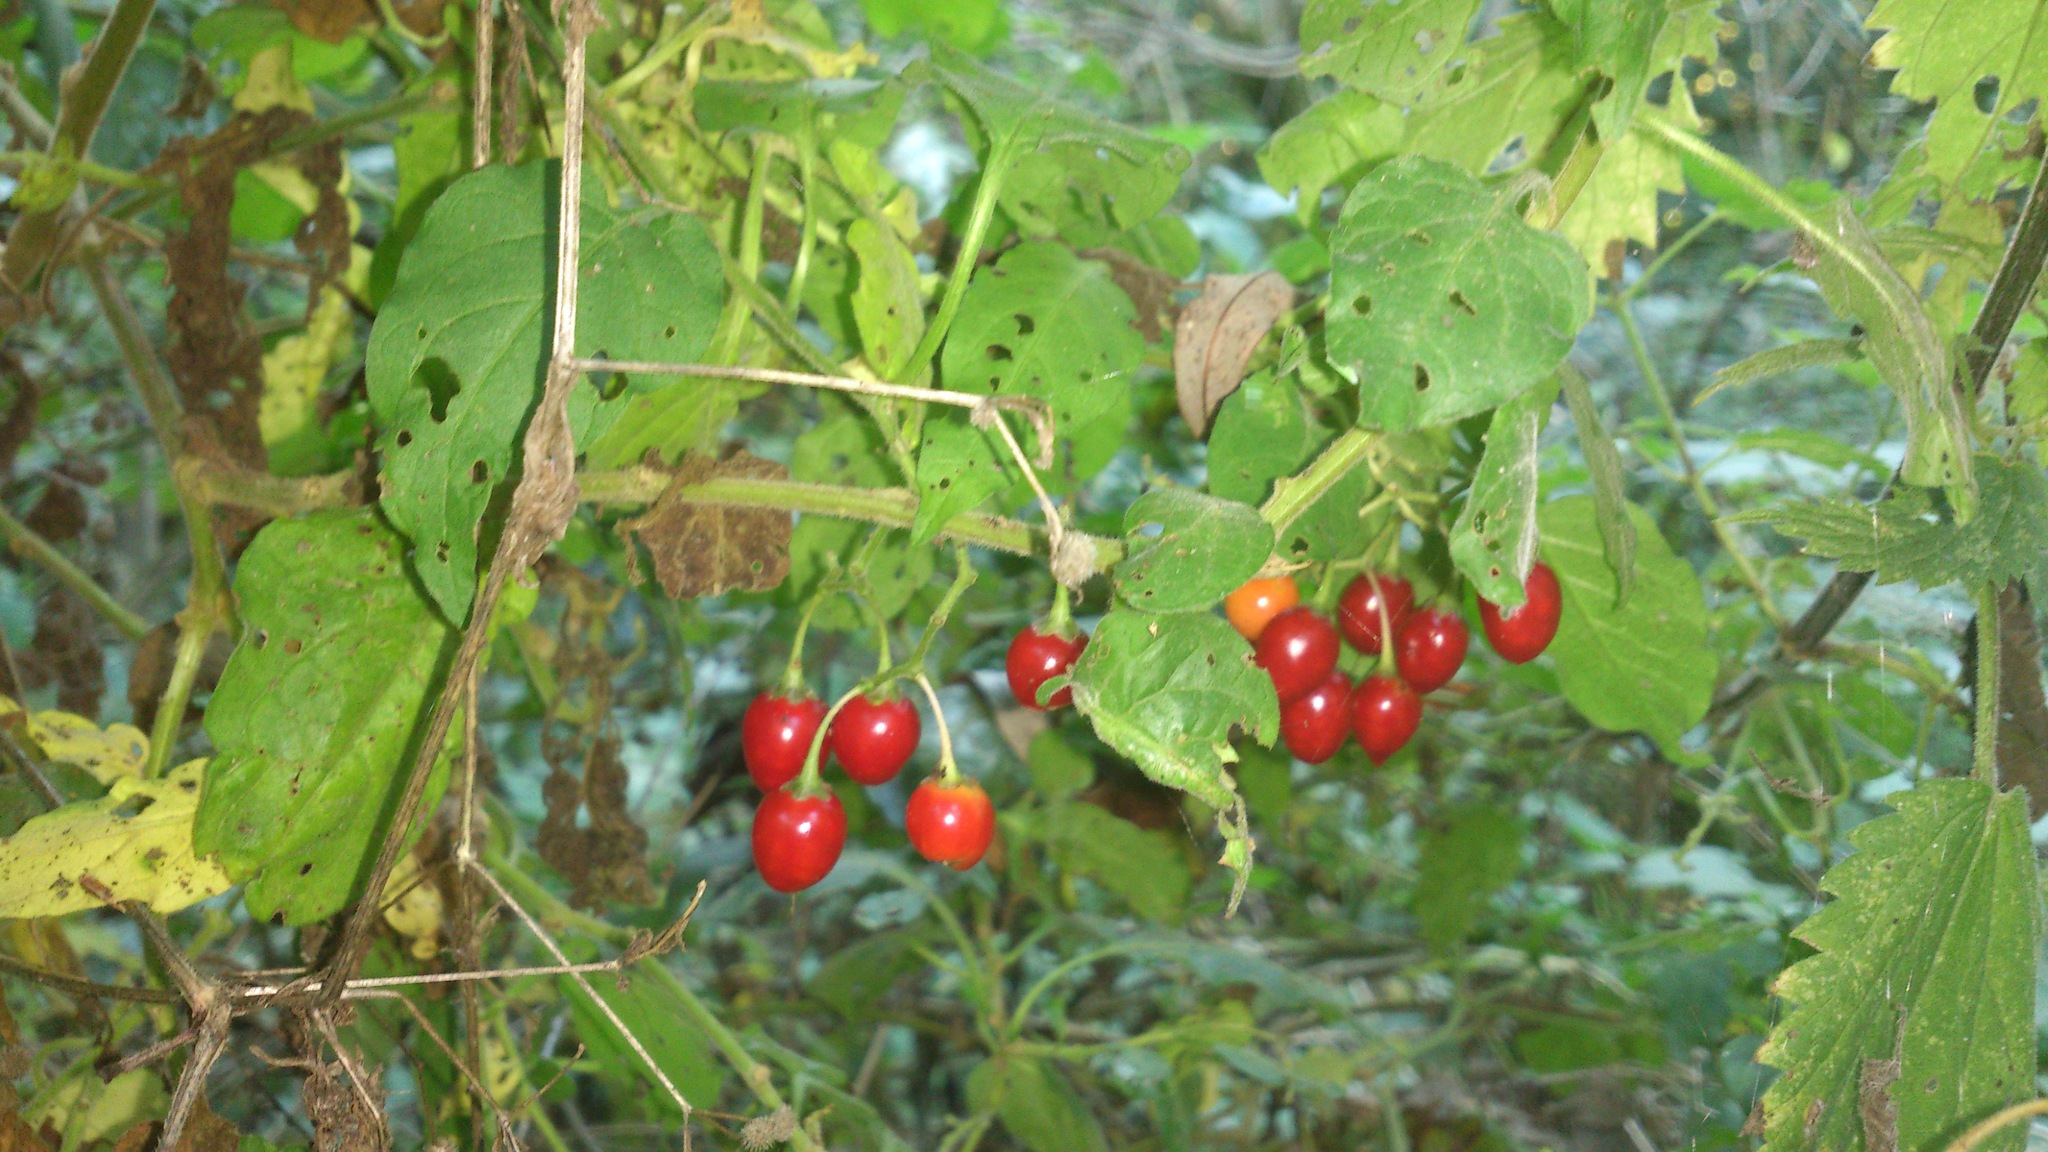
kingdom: Plantae
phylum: Tracheophyta
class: Magnoliopsida
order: Solanales
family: Solanaceae
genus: Solanum
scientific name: Solanum dulcamara
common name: Climbing nightshade
